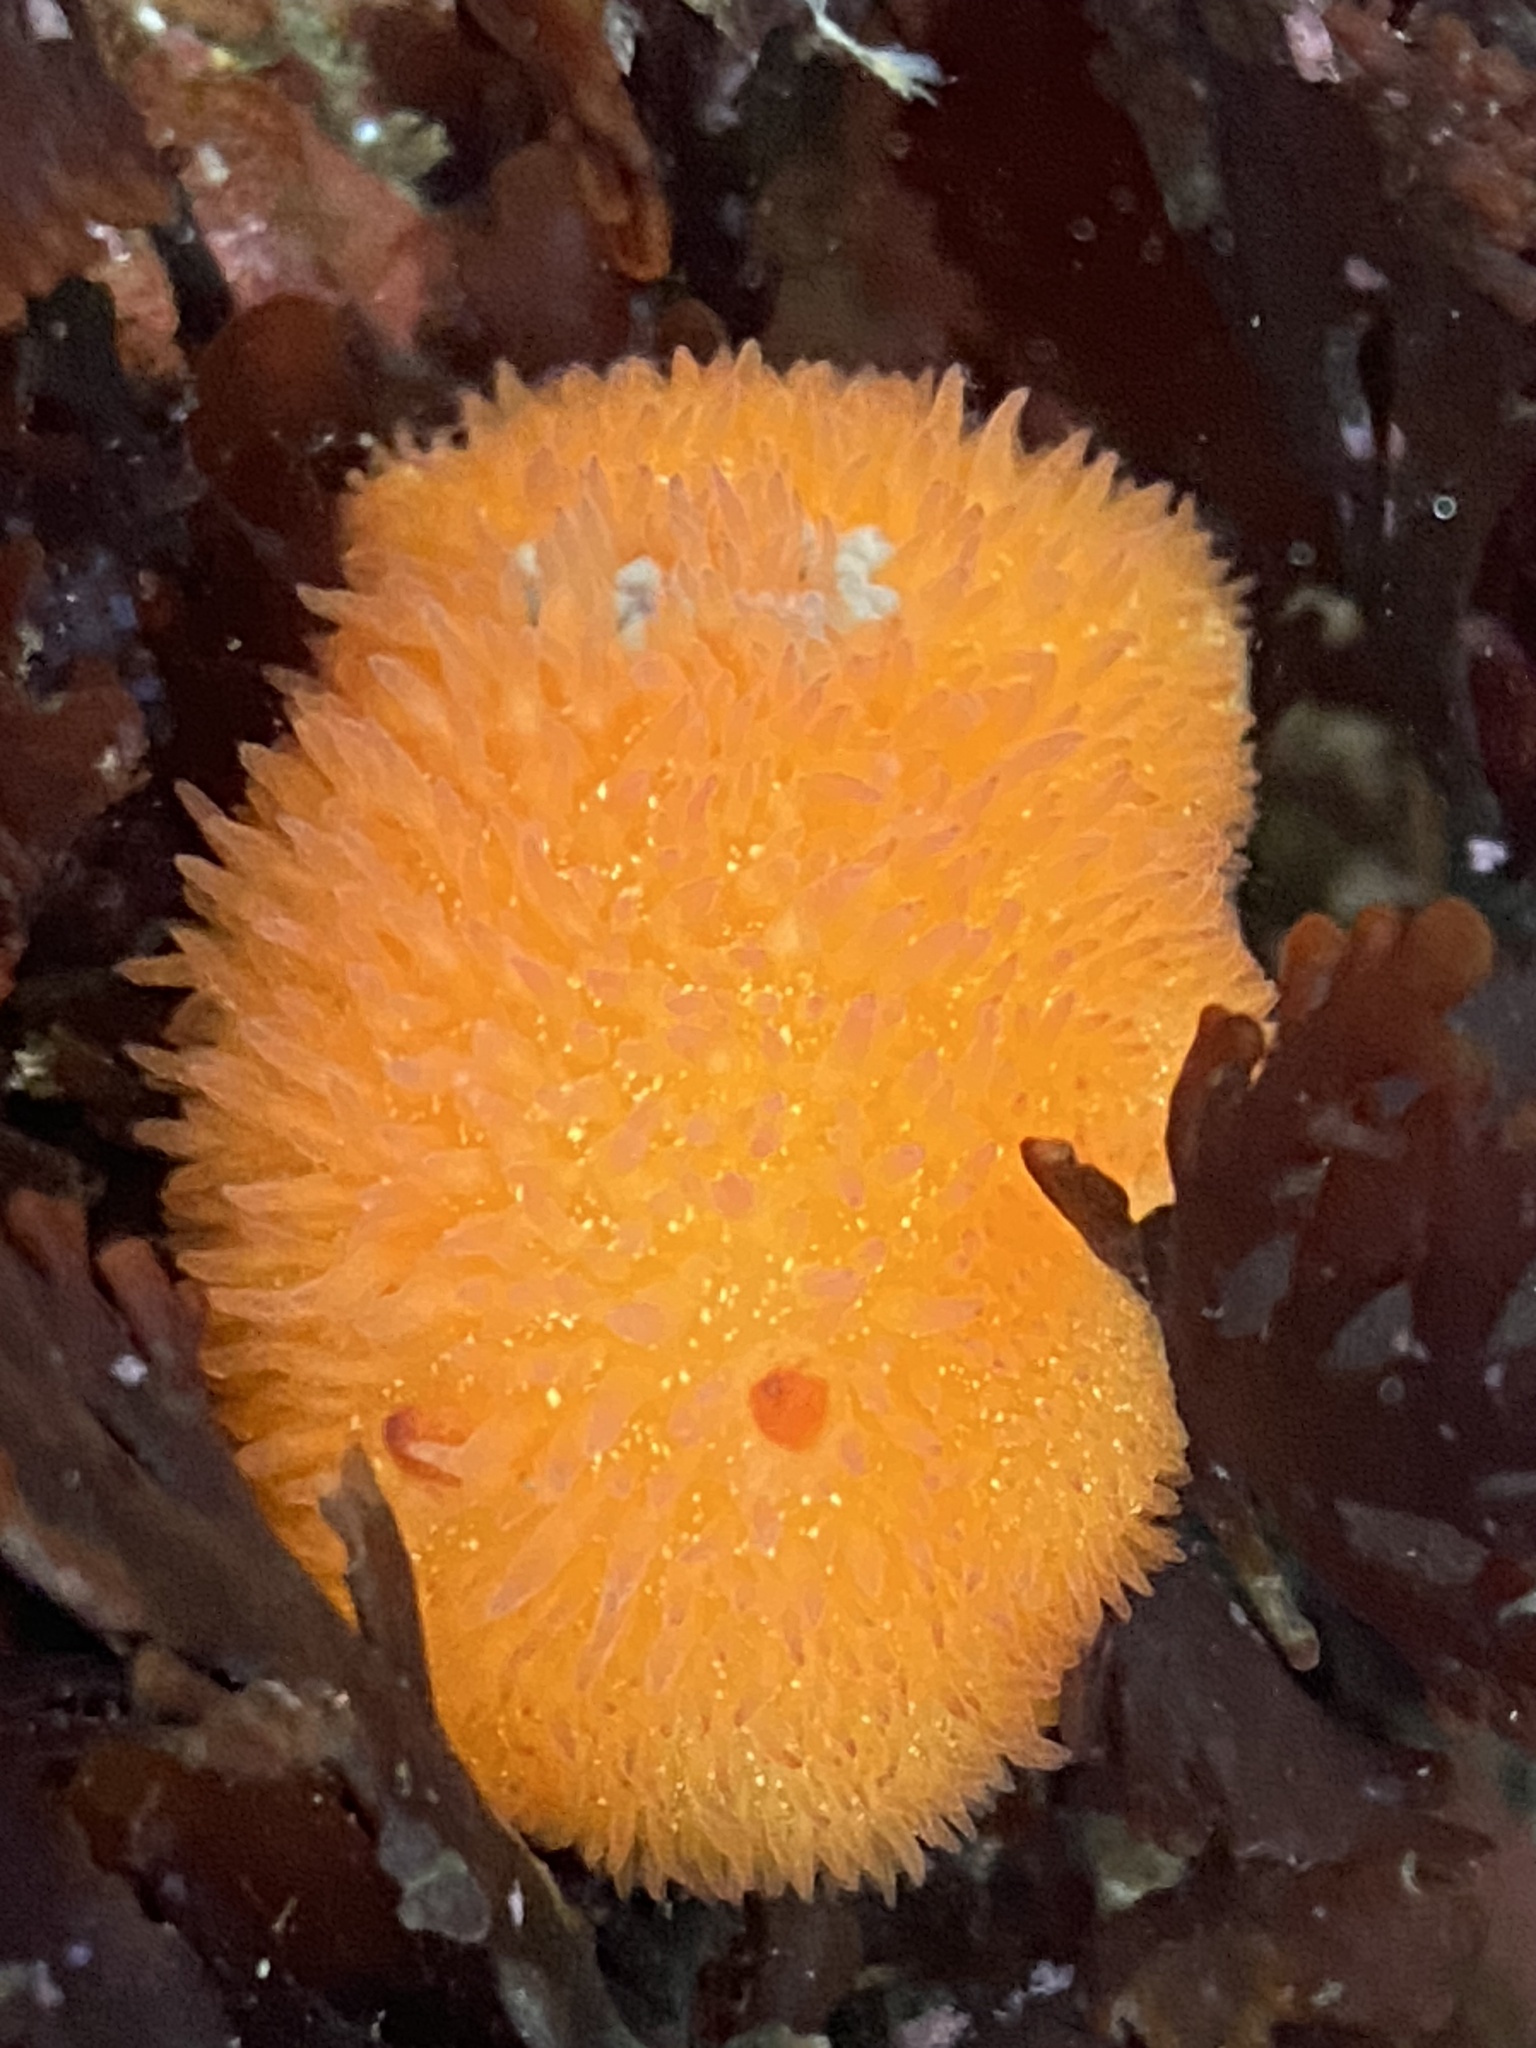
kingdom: Animalia
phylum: Mollusca
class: Gastropoda
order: Nudibranchia
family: Onchidorididae
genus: Acanthodoris
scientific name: Acanthodoris lutea
